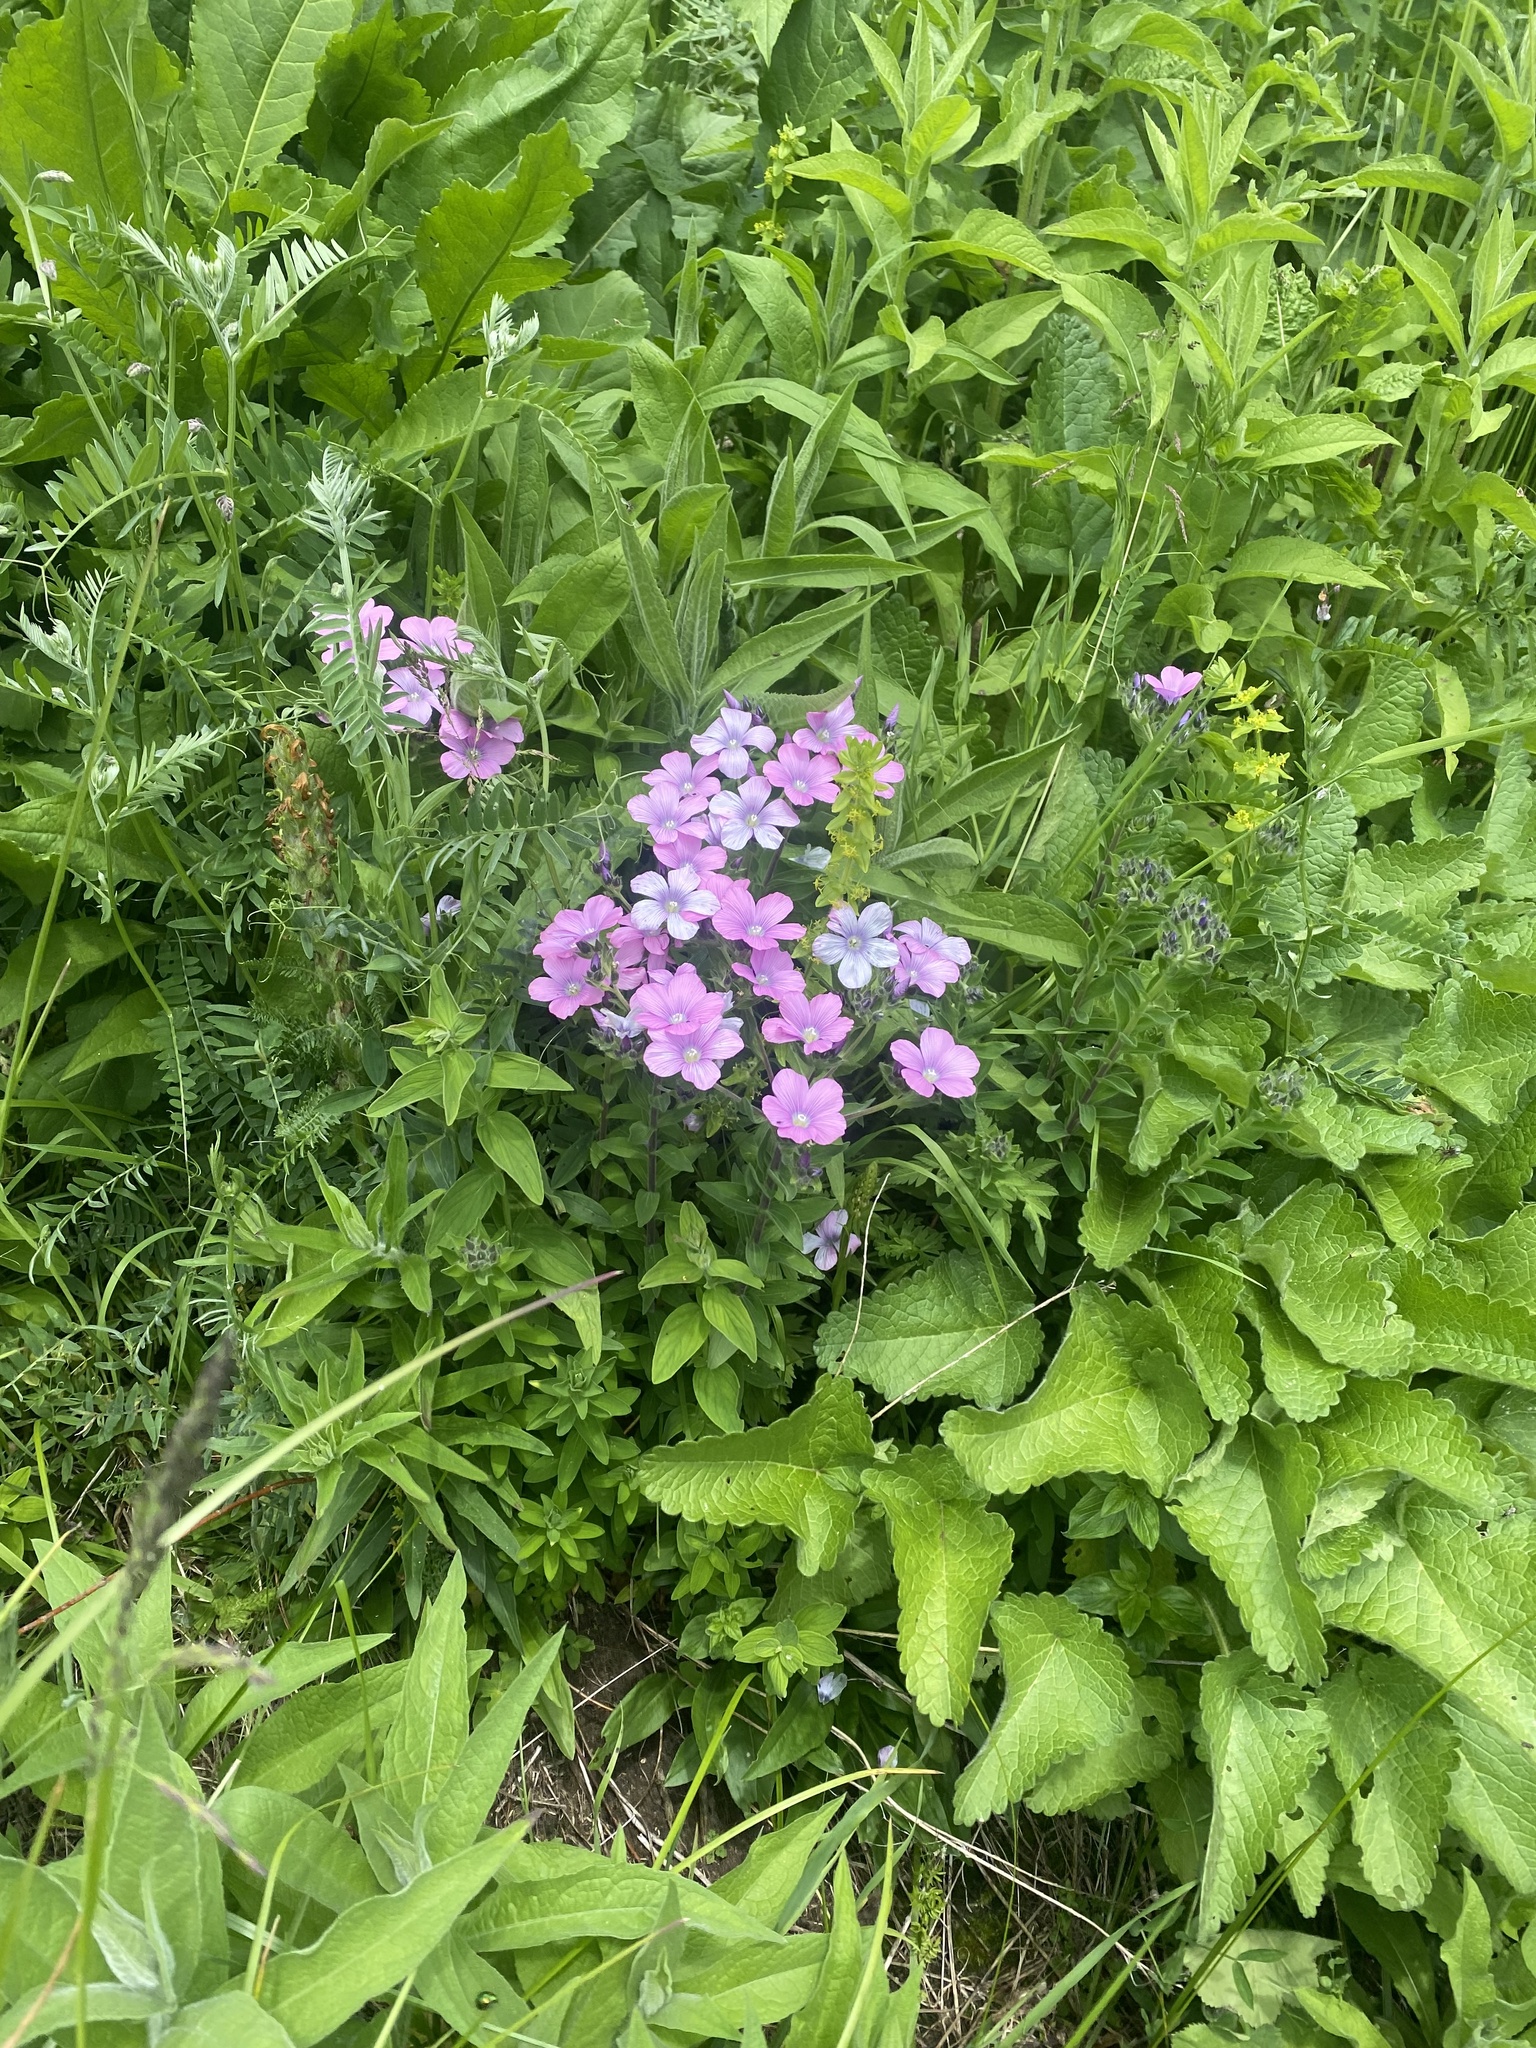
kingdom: Plantae
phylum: Tracheophyta
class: Magnoliopsida
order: Malpighiales
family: Linaceae
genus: Linum
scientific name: Linum hypericifolium
